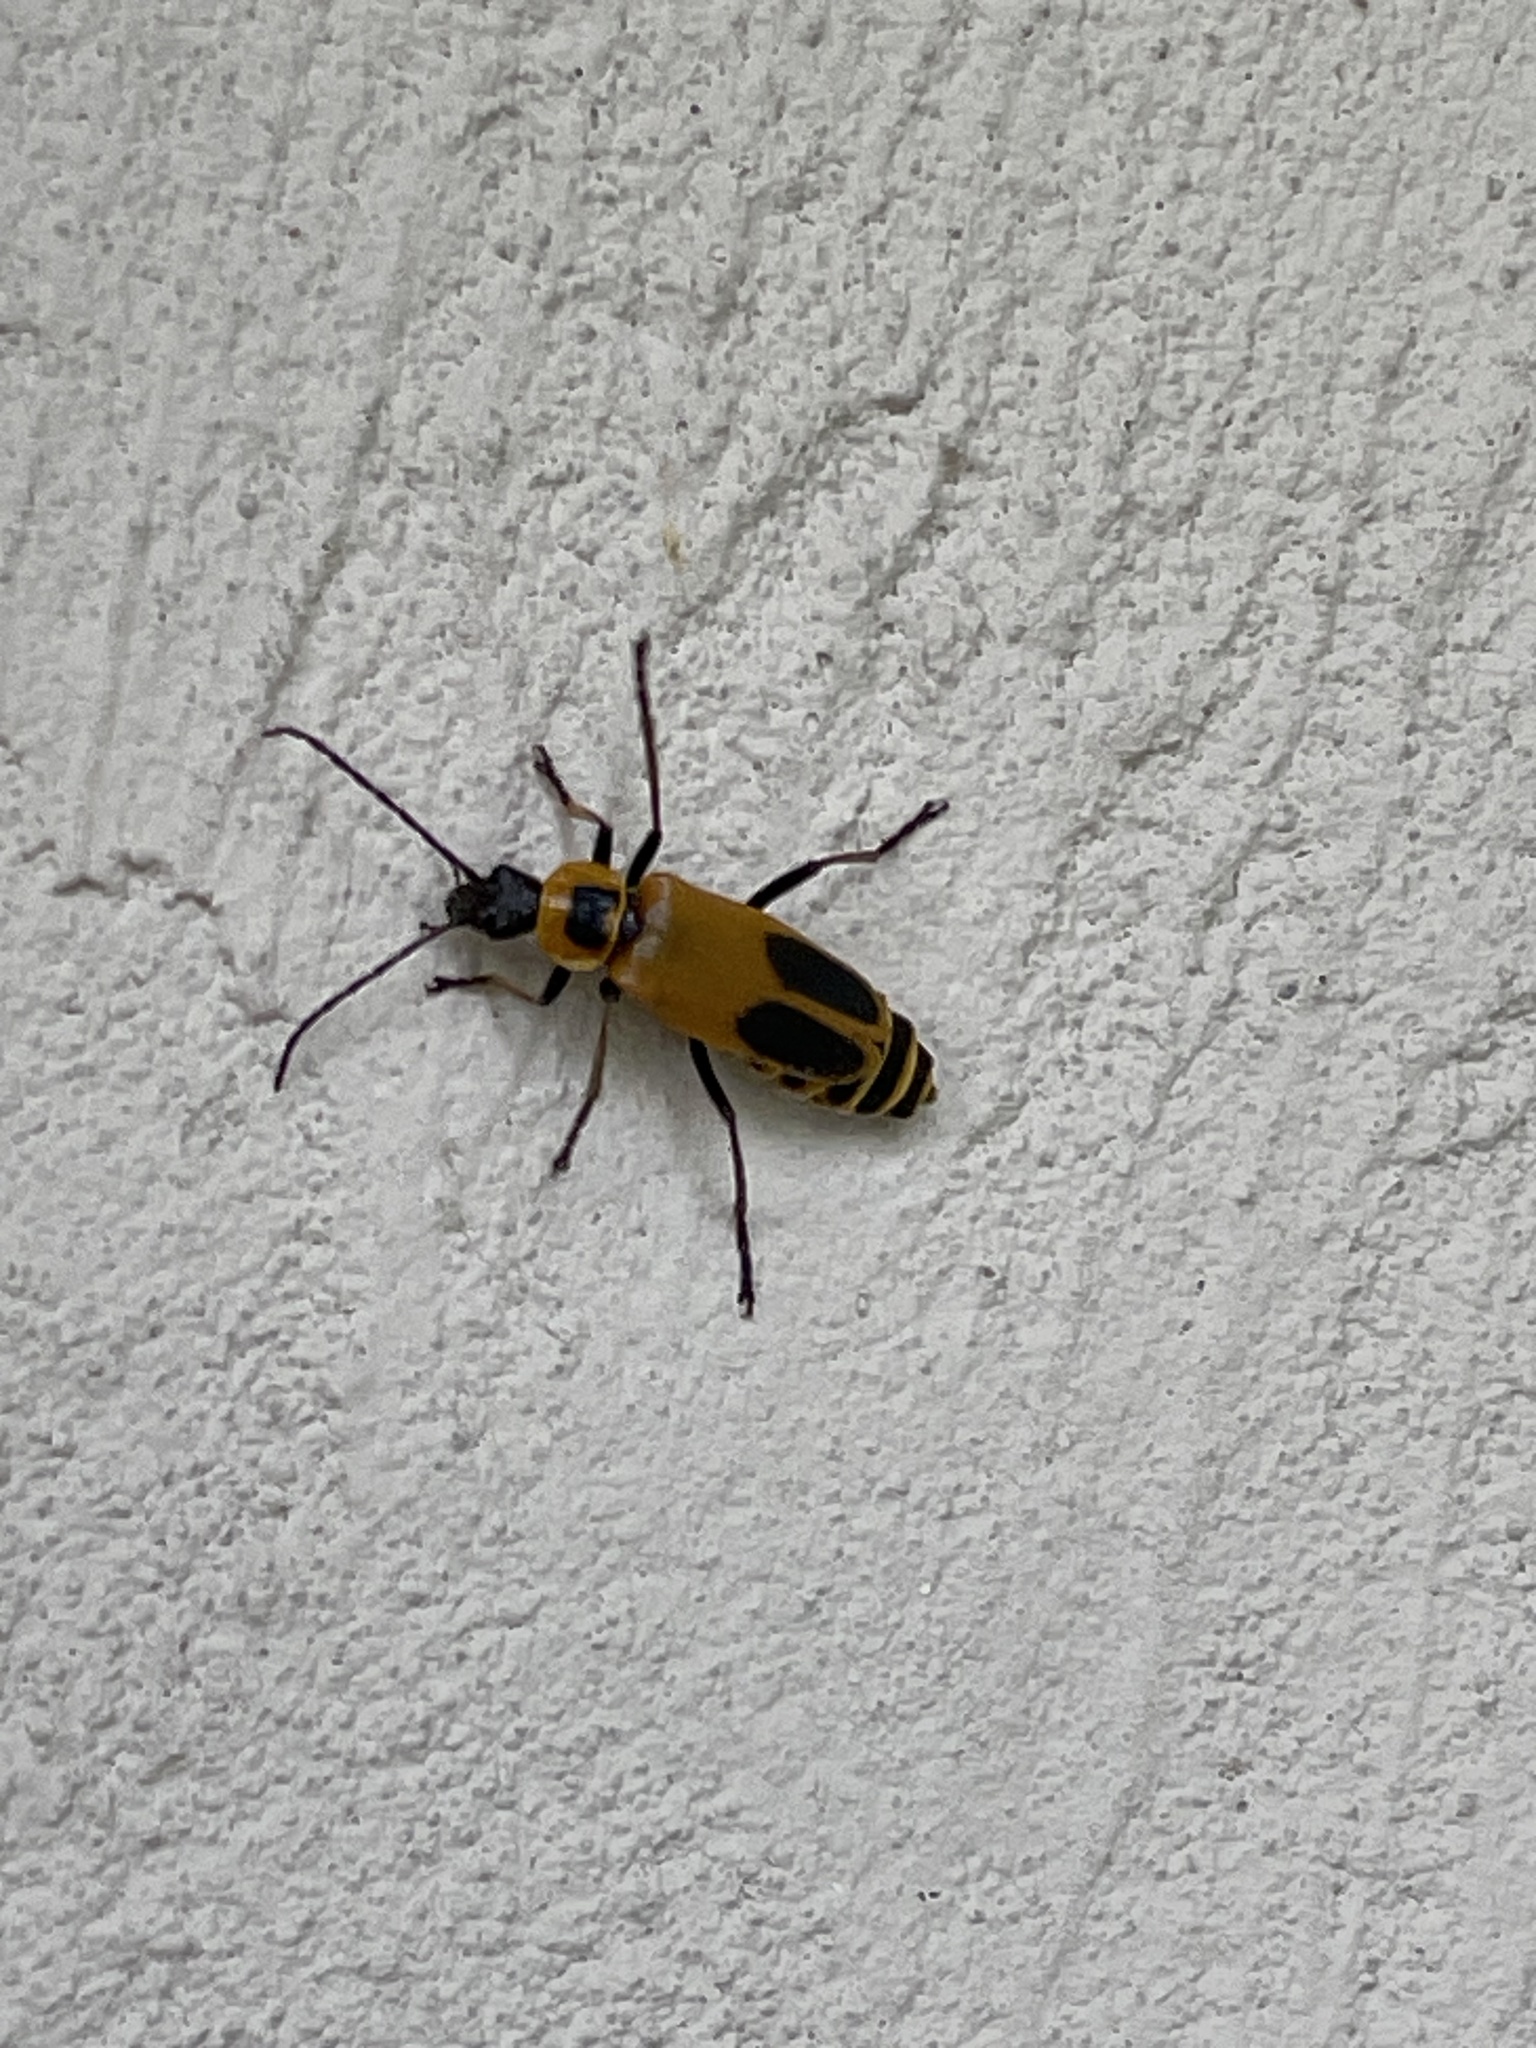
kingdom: Animalia
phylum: Arthropoda
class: Insecta
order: Coleoptera
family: Cantharidae
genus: Chauliognathus
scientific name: Chauliognathus pensylvanicus
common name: Goldenrod soldier beetle
